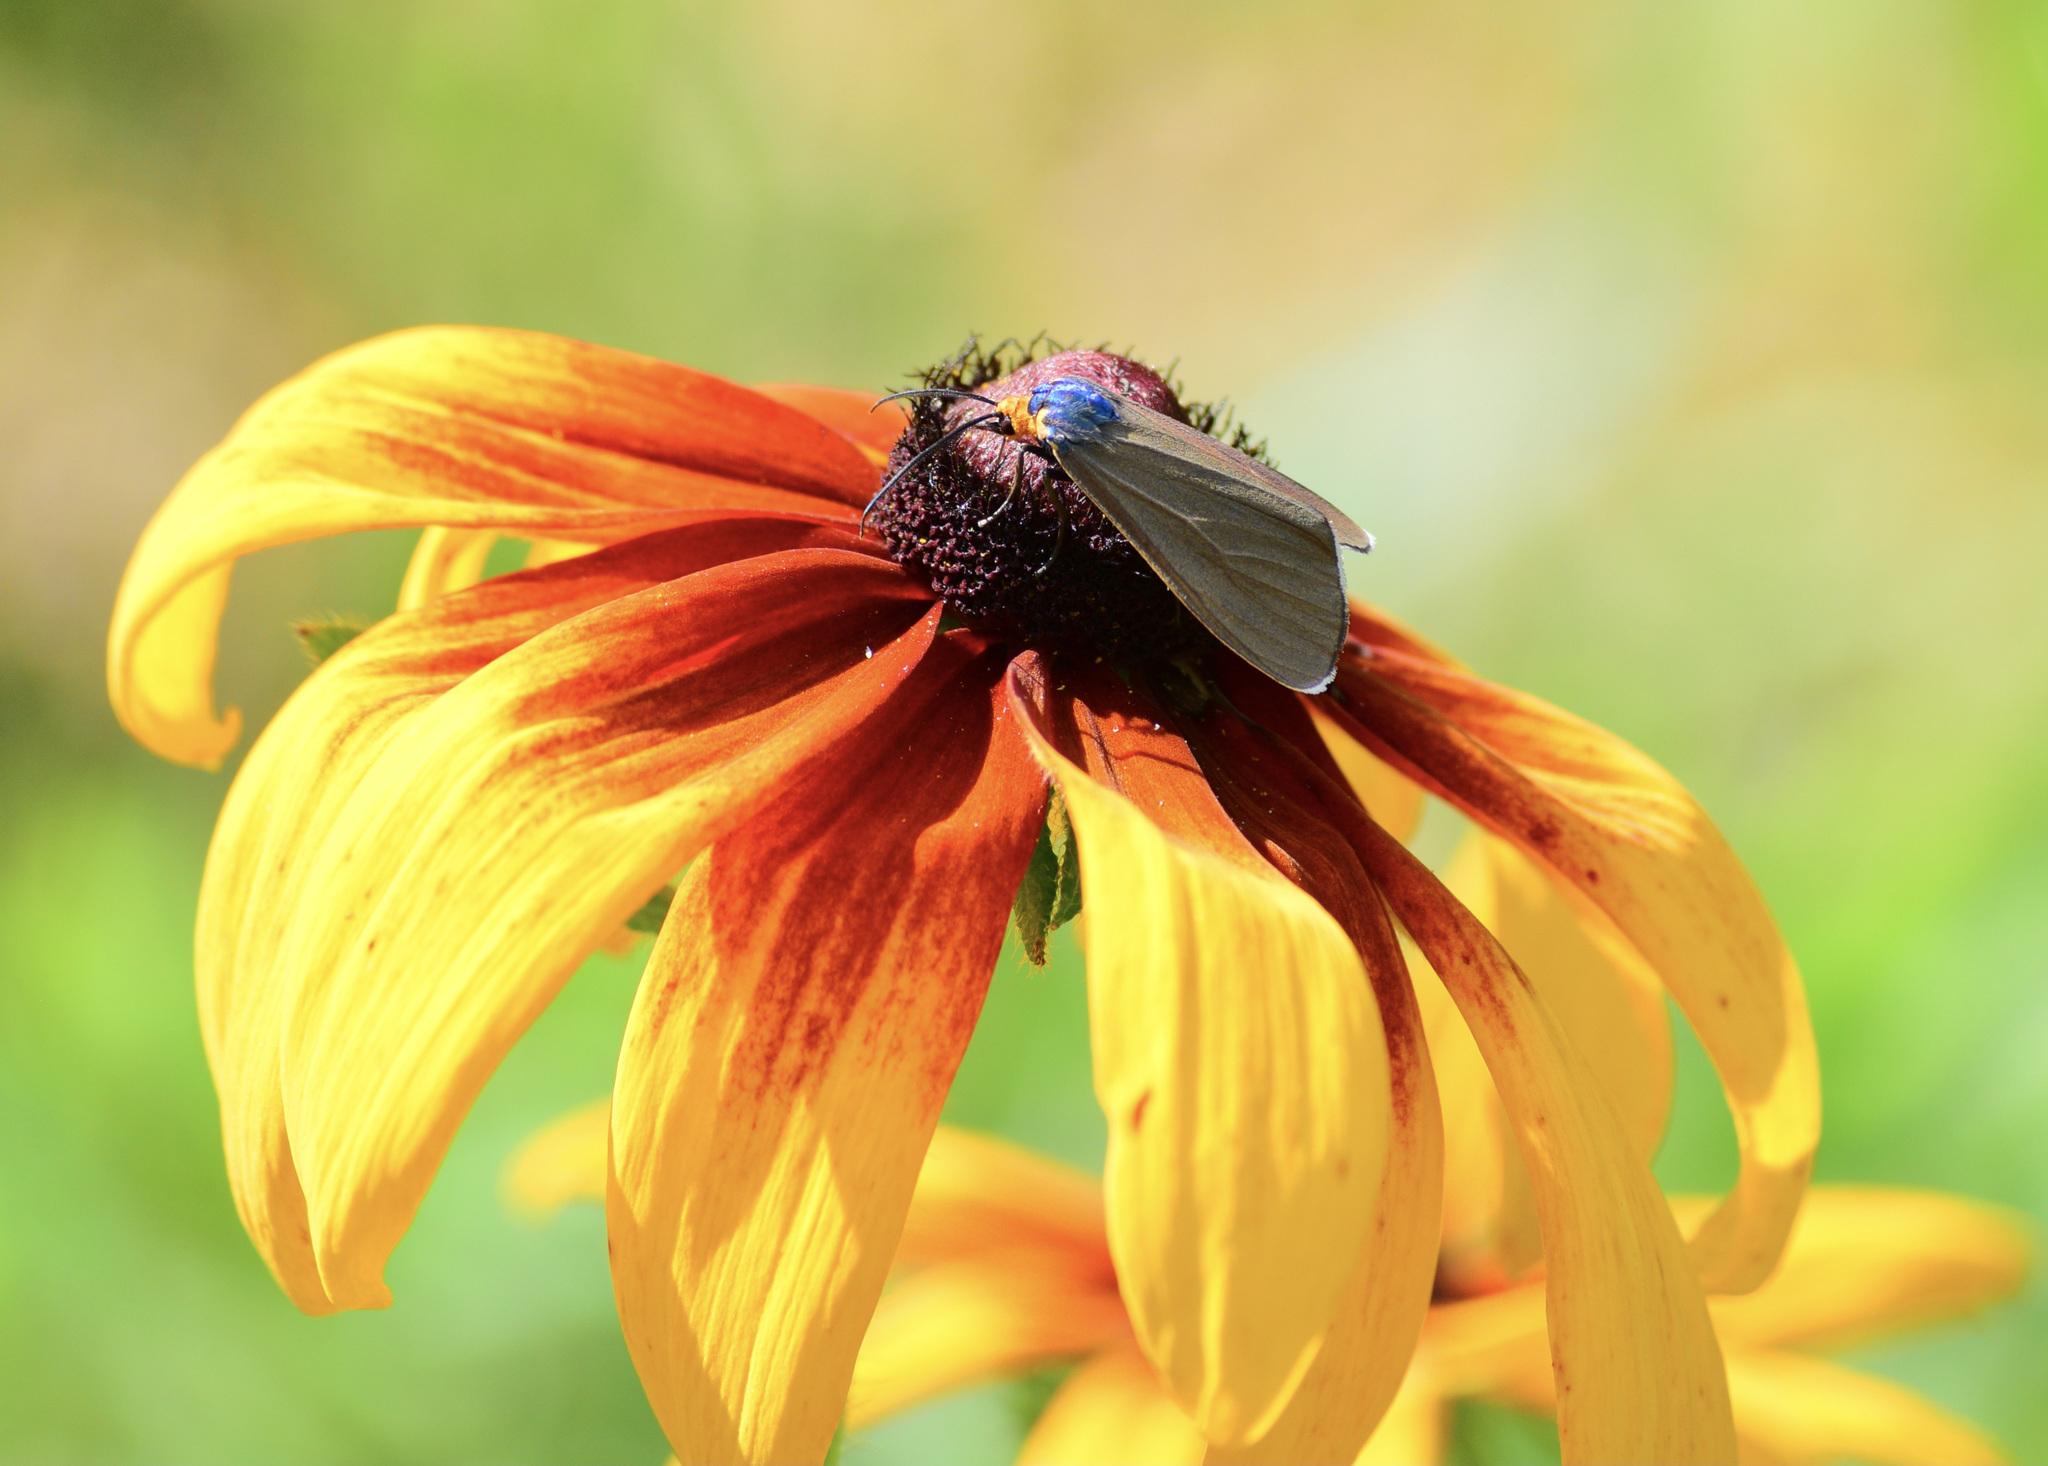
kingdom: Animalia
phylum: Arthropoda
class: Insecta
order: Lepidoptera
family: Erebidae
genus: Ctenucha
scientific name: Ctenucha virginica
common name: Virginia ctenucha moth
